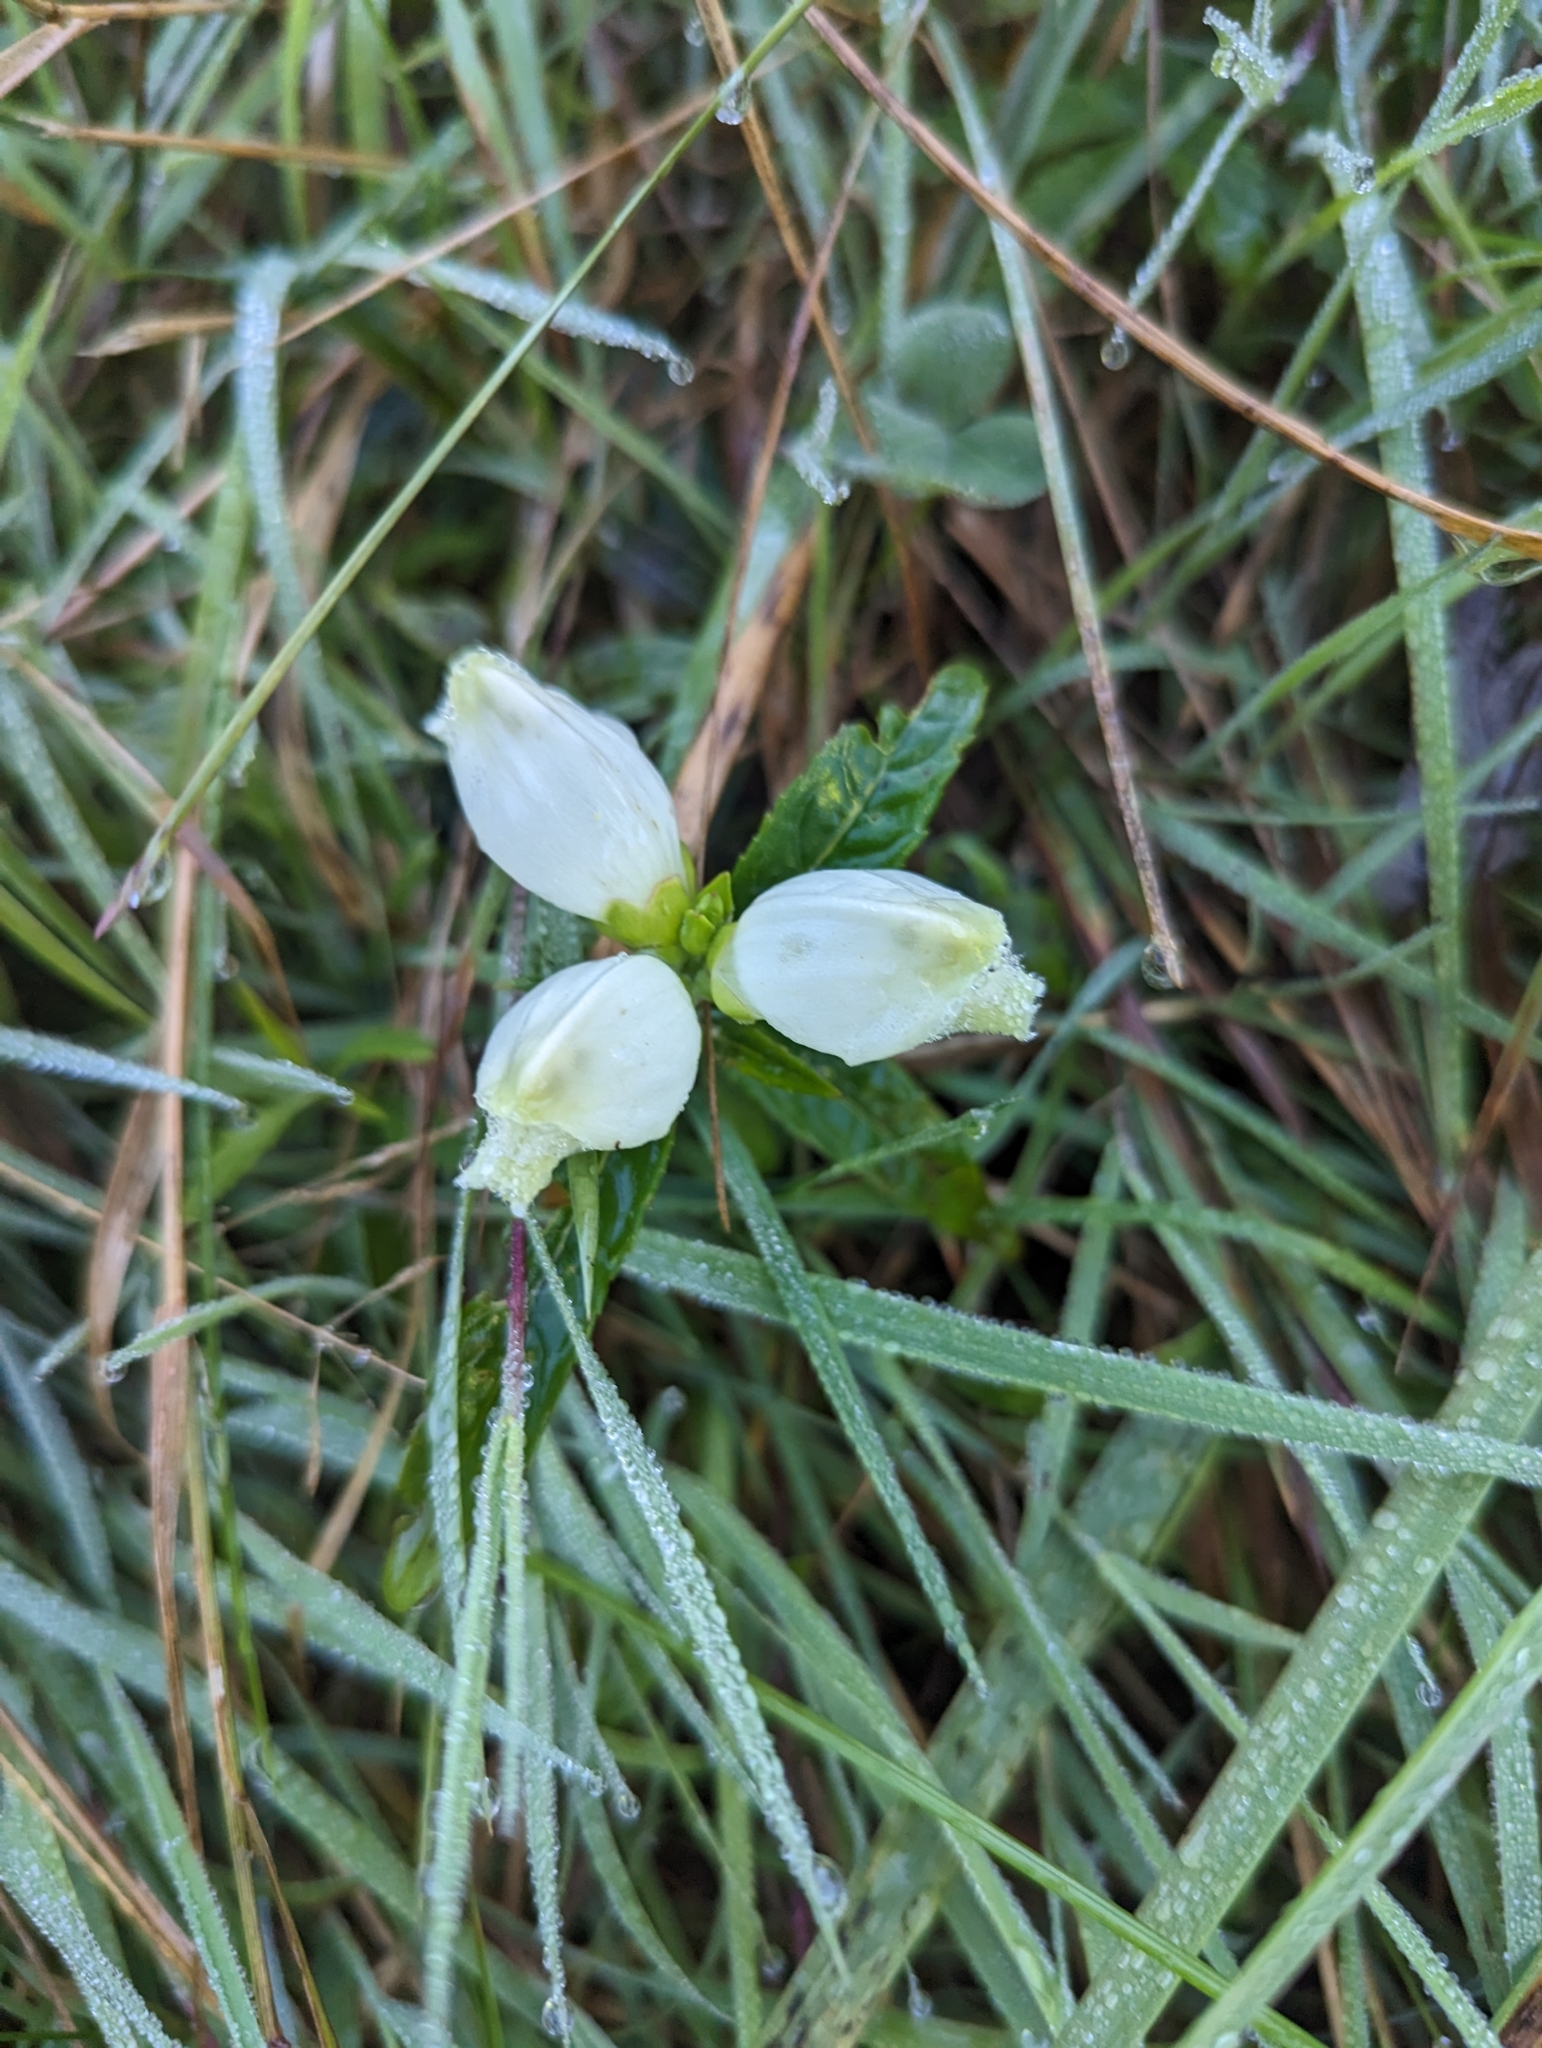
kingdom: Plantae
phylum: Tracheophyta
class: Magnoliopsida
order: Lamiales
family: Plantaginaceae
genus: Chelone
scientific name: Chelone glabra
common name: Snakehead
